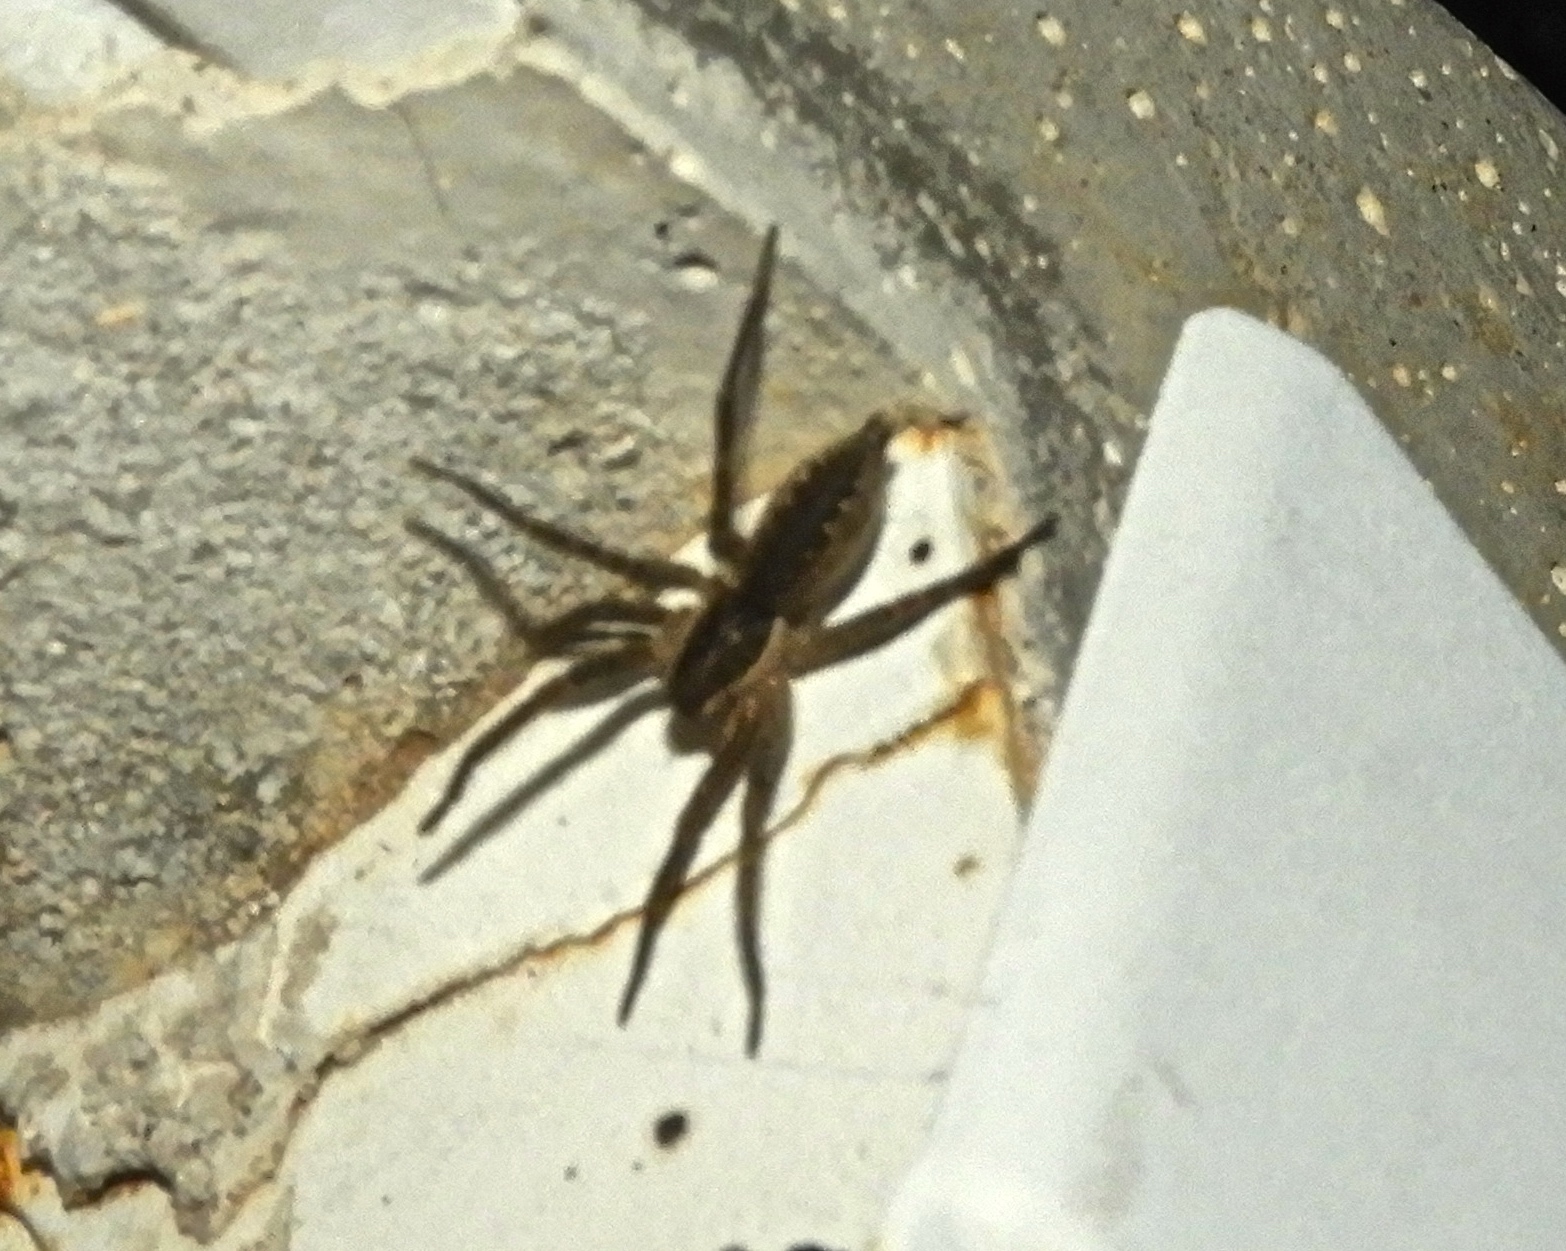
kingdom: Animalia
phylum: Arthropoda
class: Arachnida
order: Araneae
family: Lycosidae
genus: Sosippus
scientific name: Sosippus californicus
